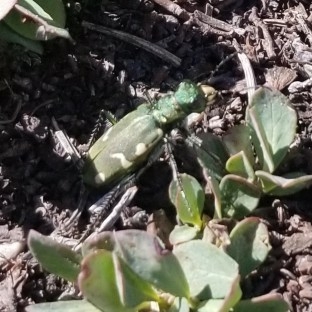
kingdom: Animalia
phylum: Arthropoda
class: Insecta
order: Coleoptera
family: Carabidae
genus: Cicindela
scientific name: Cicindela longilabris
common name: Boreal long-lipped tiger beetle
